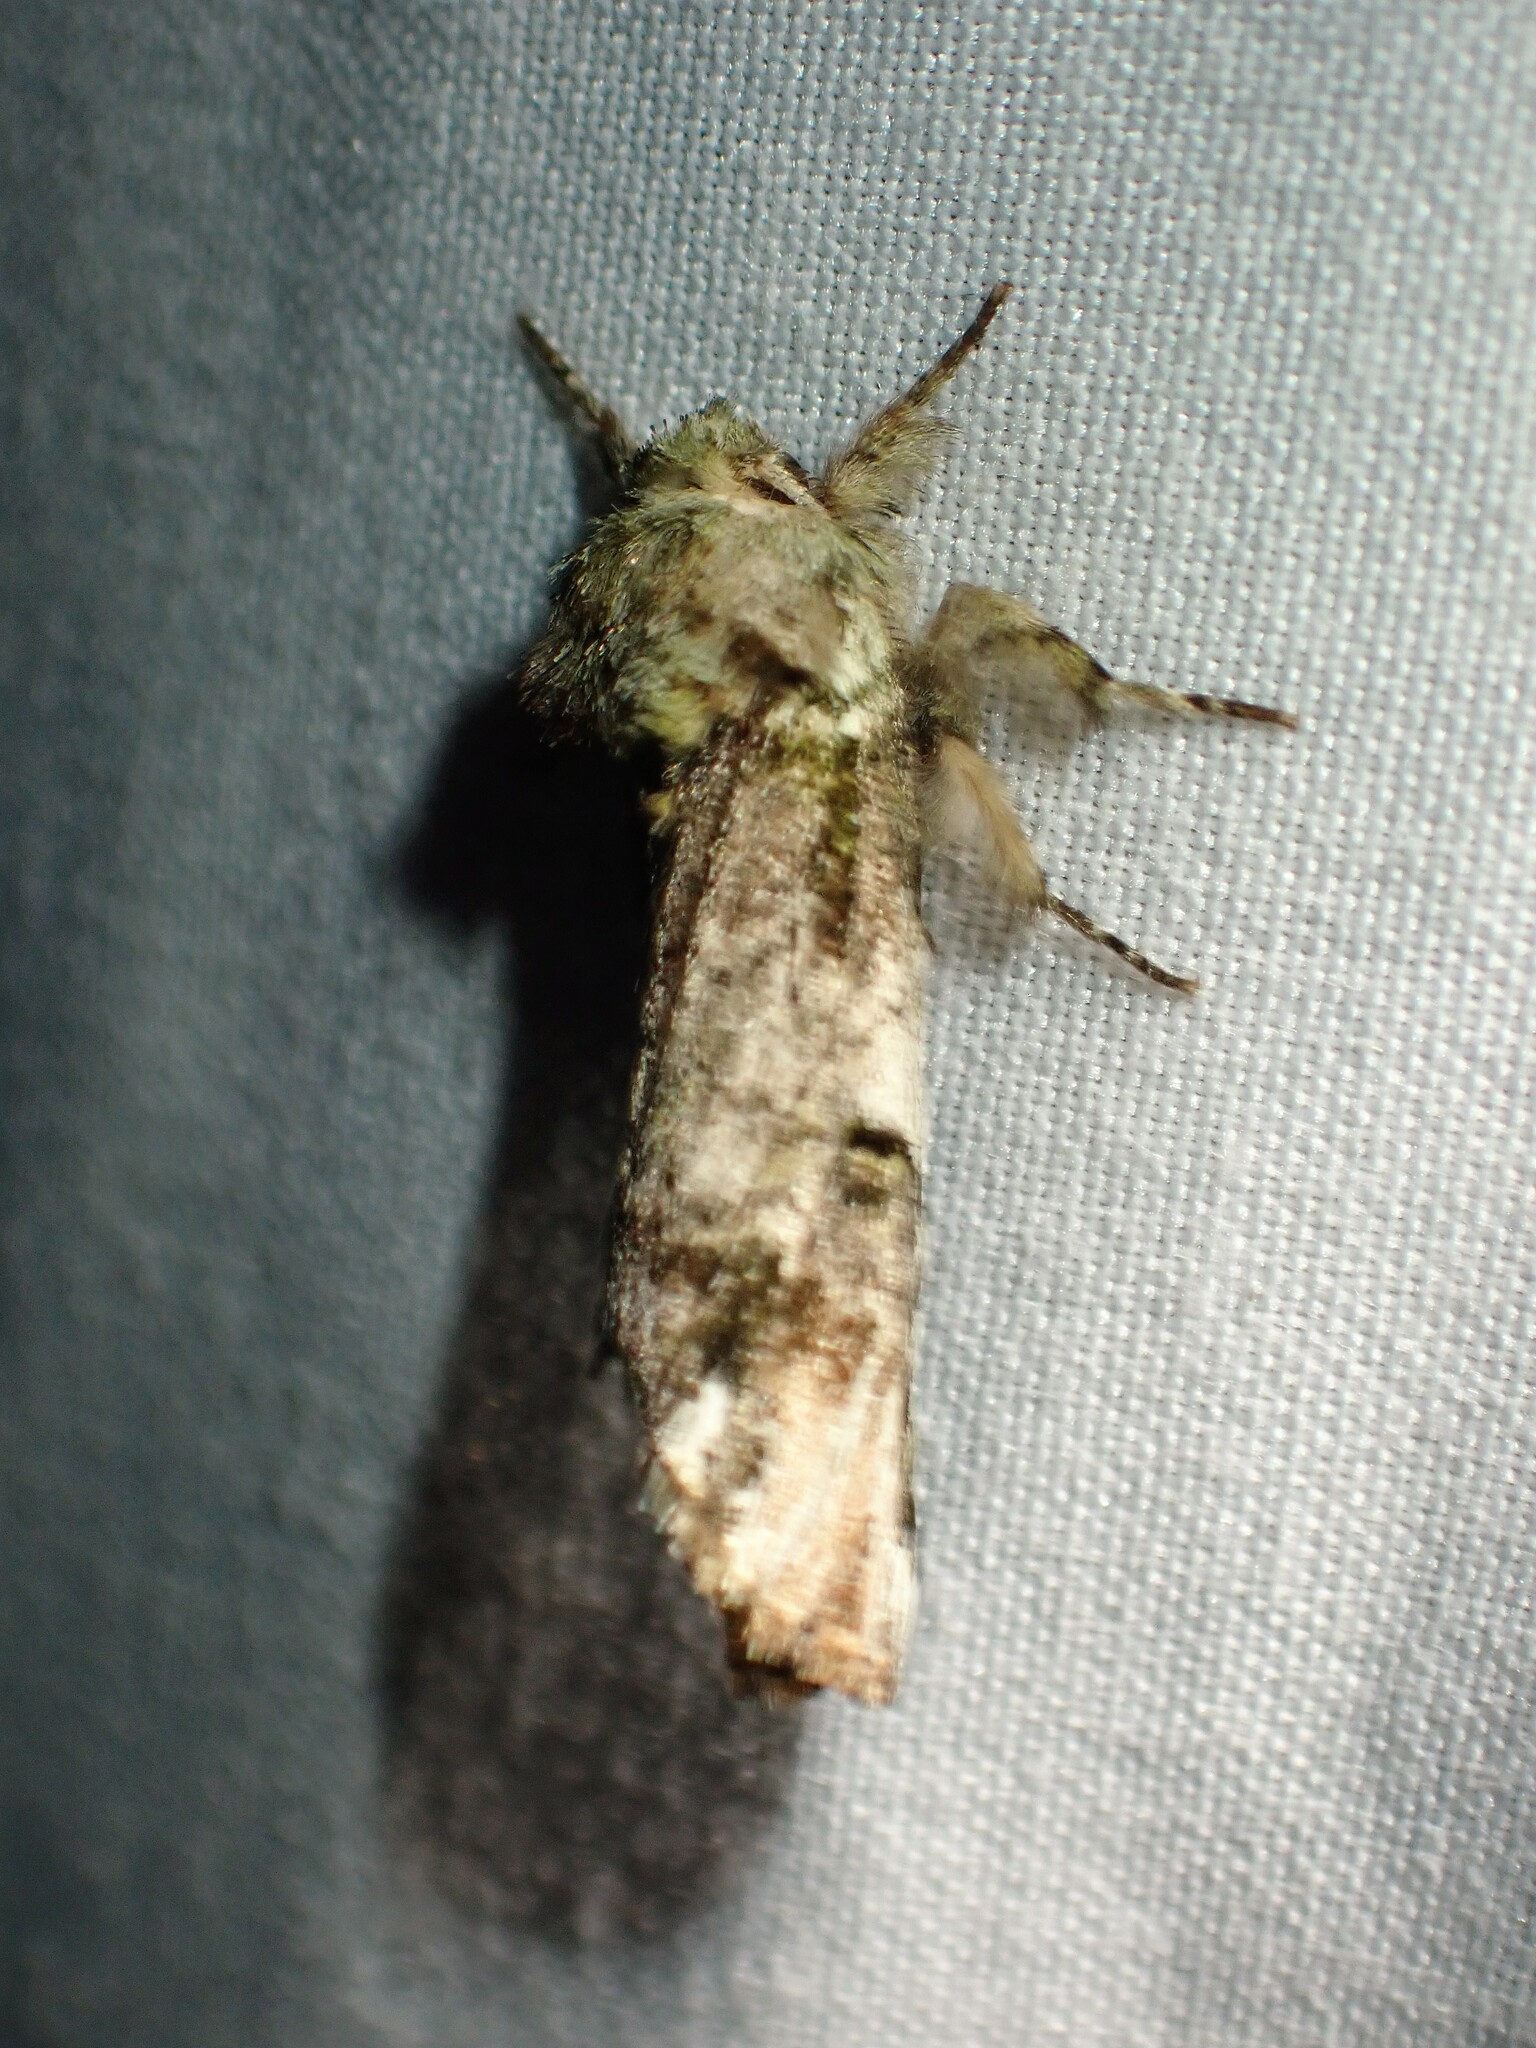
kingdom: Animalia
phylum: Arthropoda
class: Insecta
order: Lepidoptera
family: Notodontidae
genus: Schizura
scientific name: Schizura
